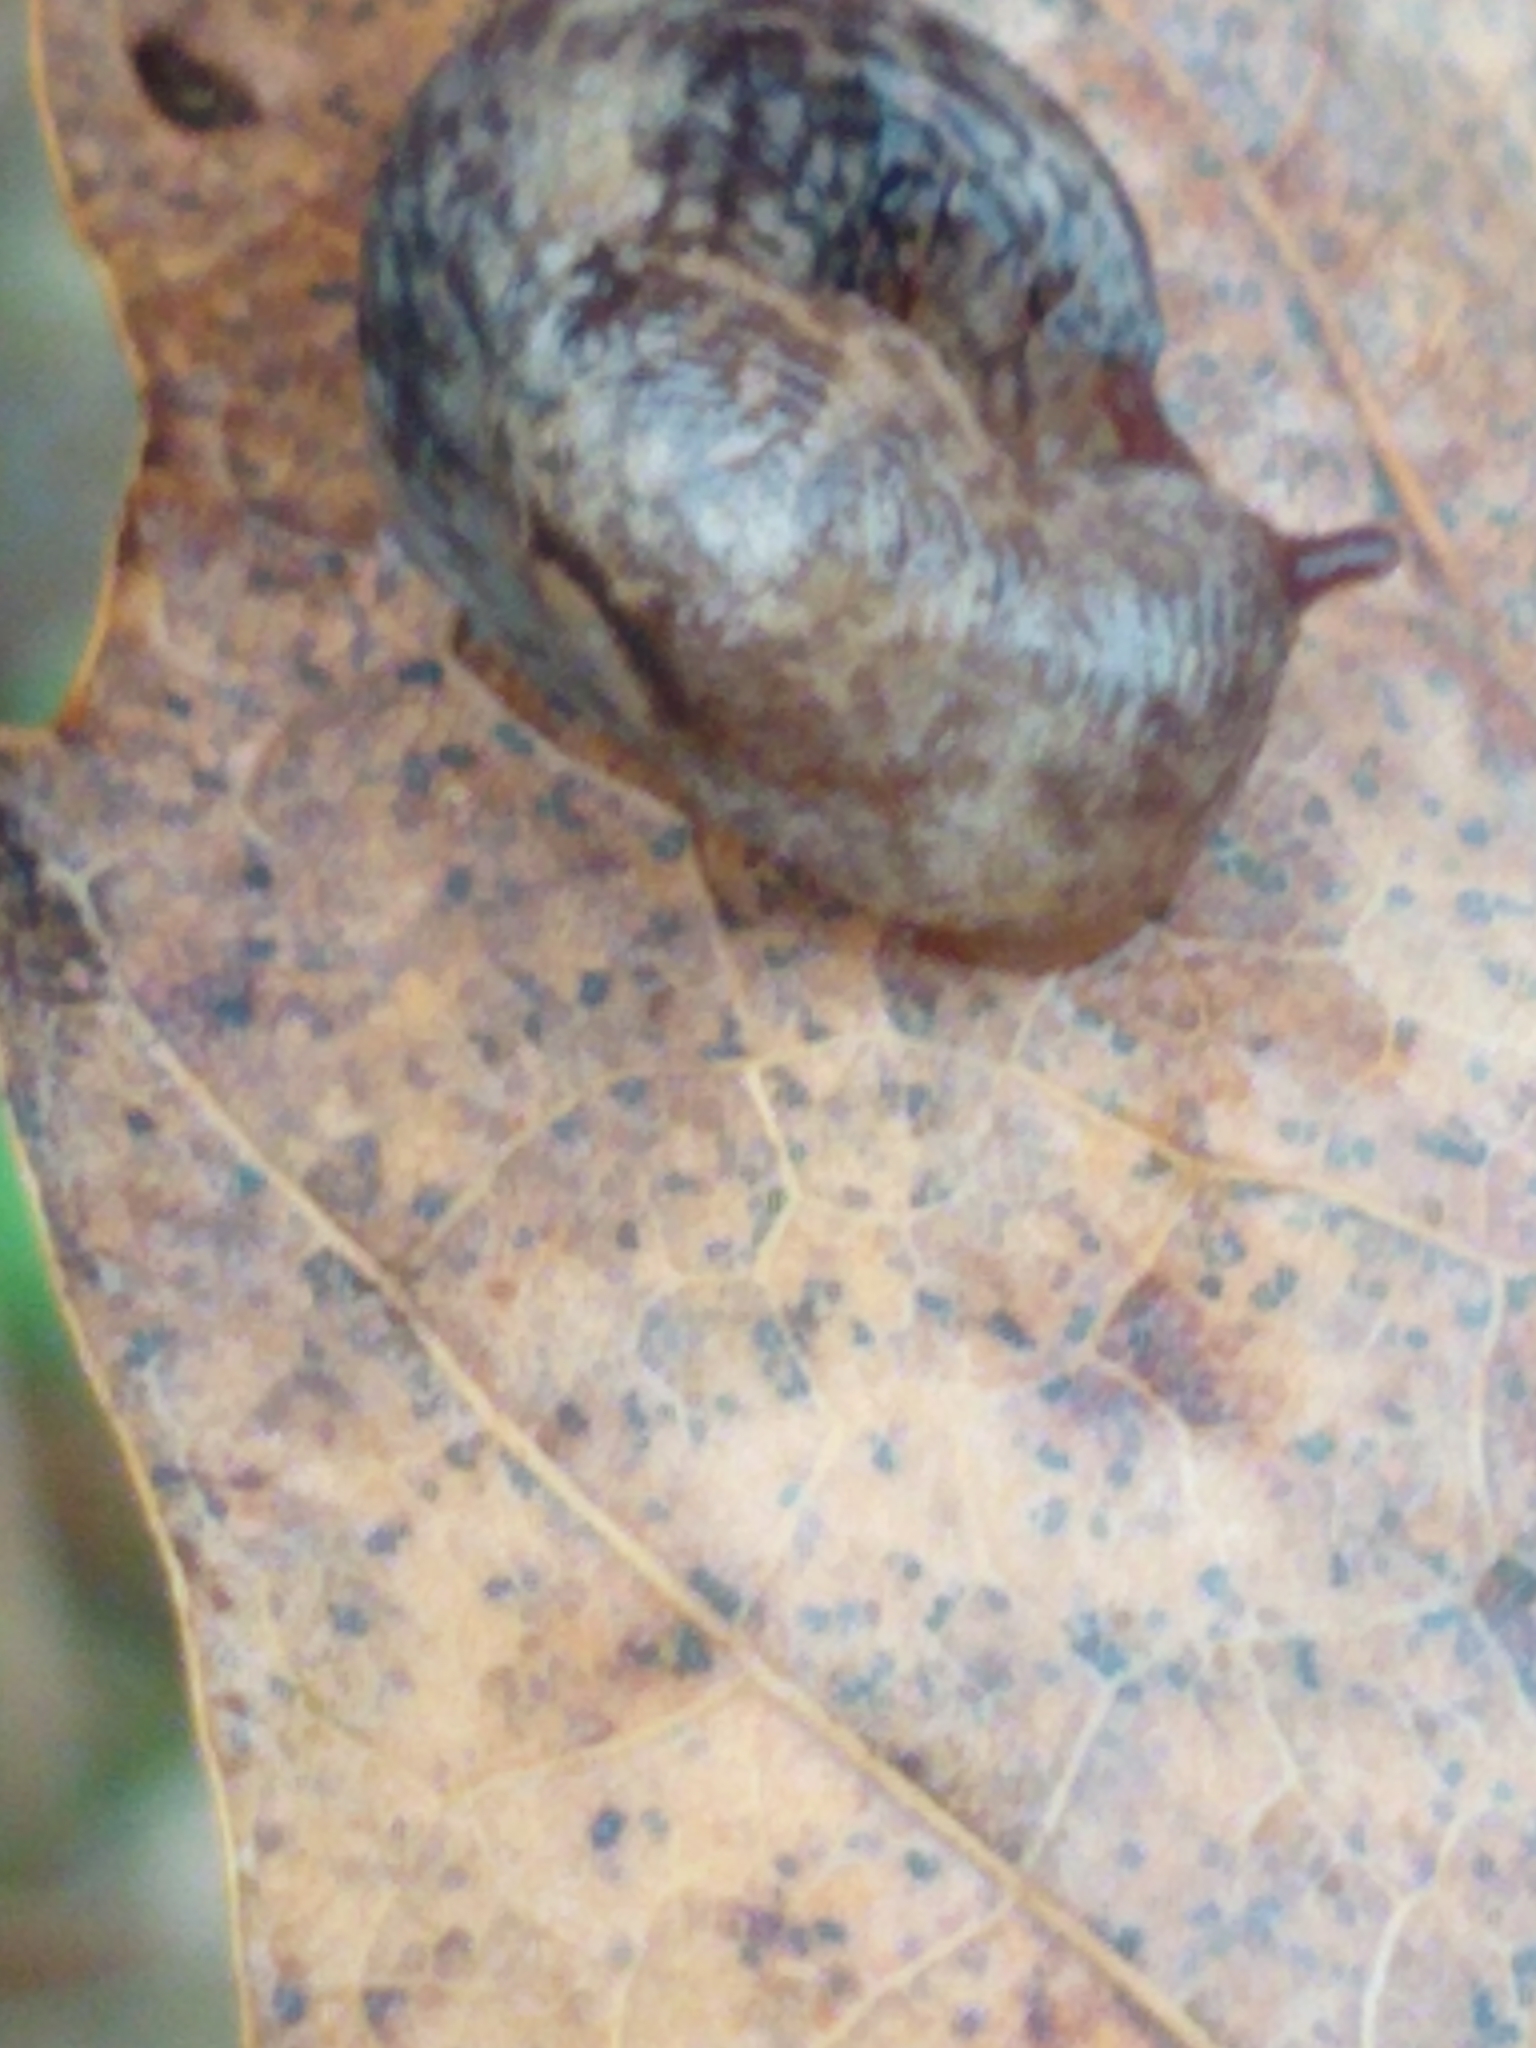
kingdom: Animalia
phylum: Mollusca
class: Gastropoda
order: Stylommatophora
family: Agriolimacidae
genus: Deroceras
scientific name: Deroceras reticulatum
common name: Gray field slug
